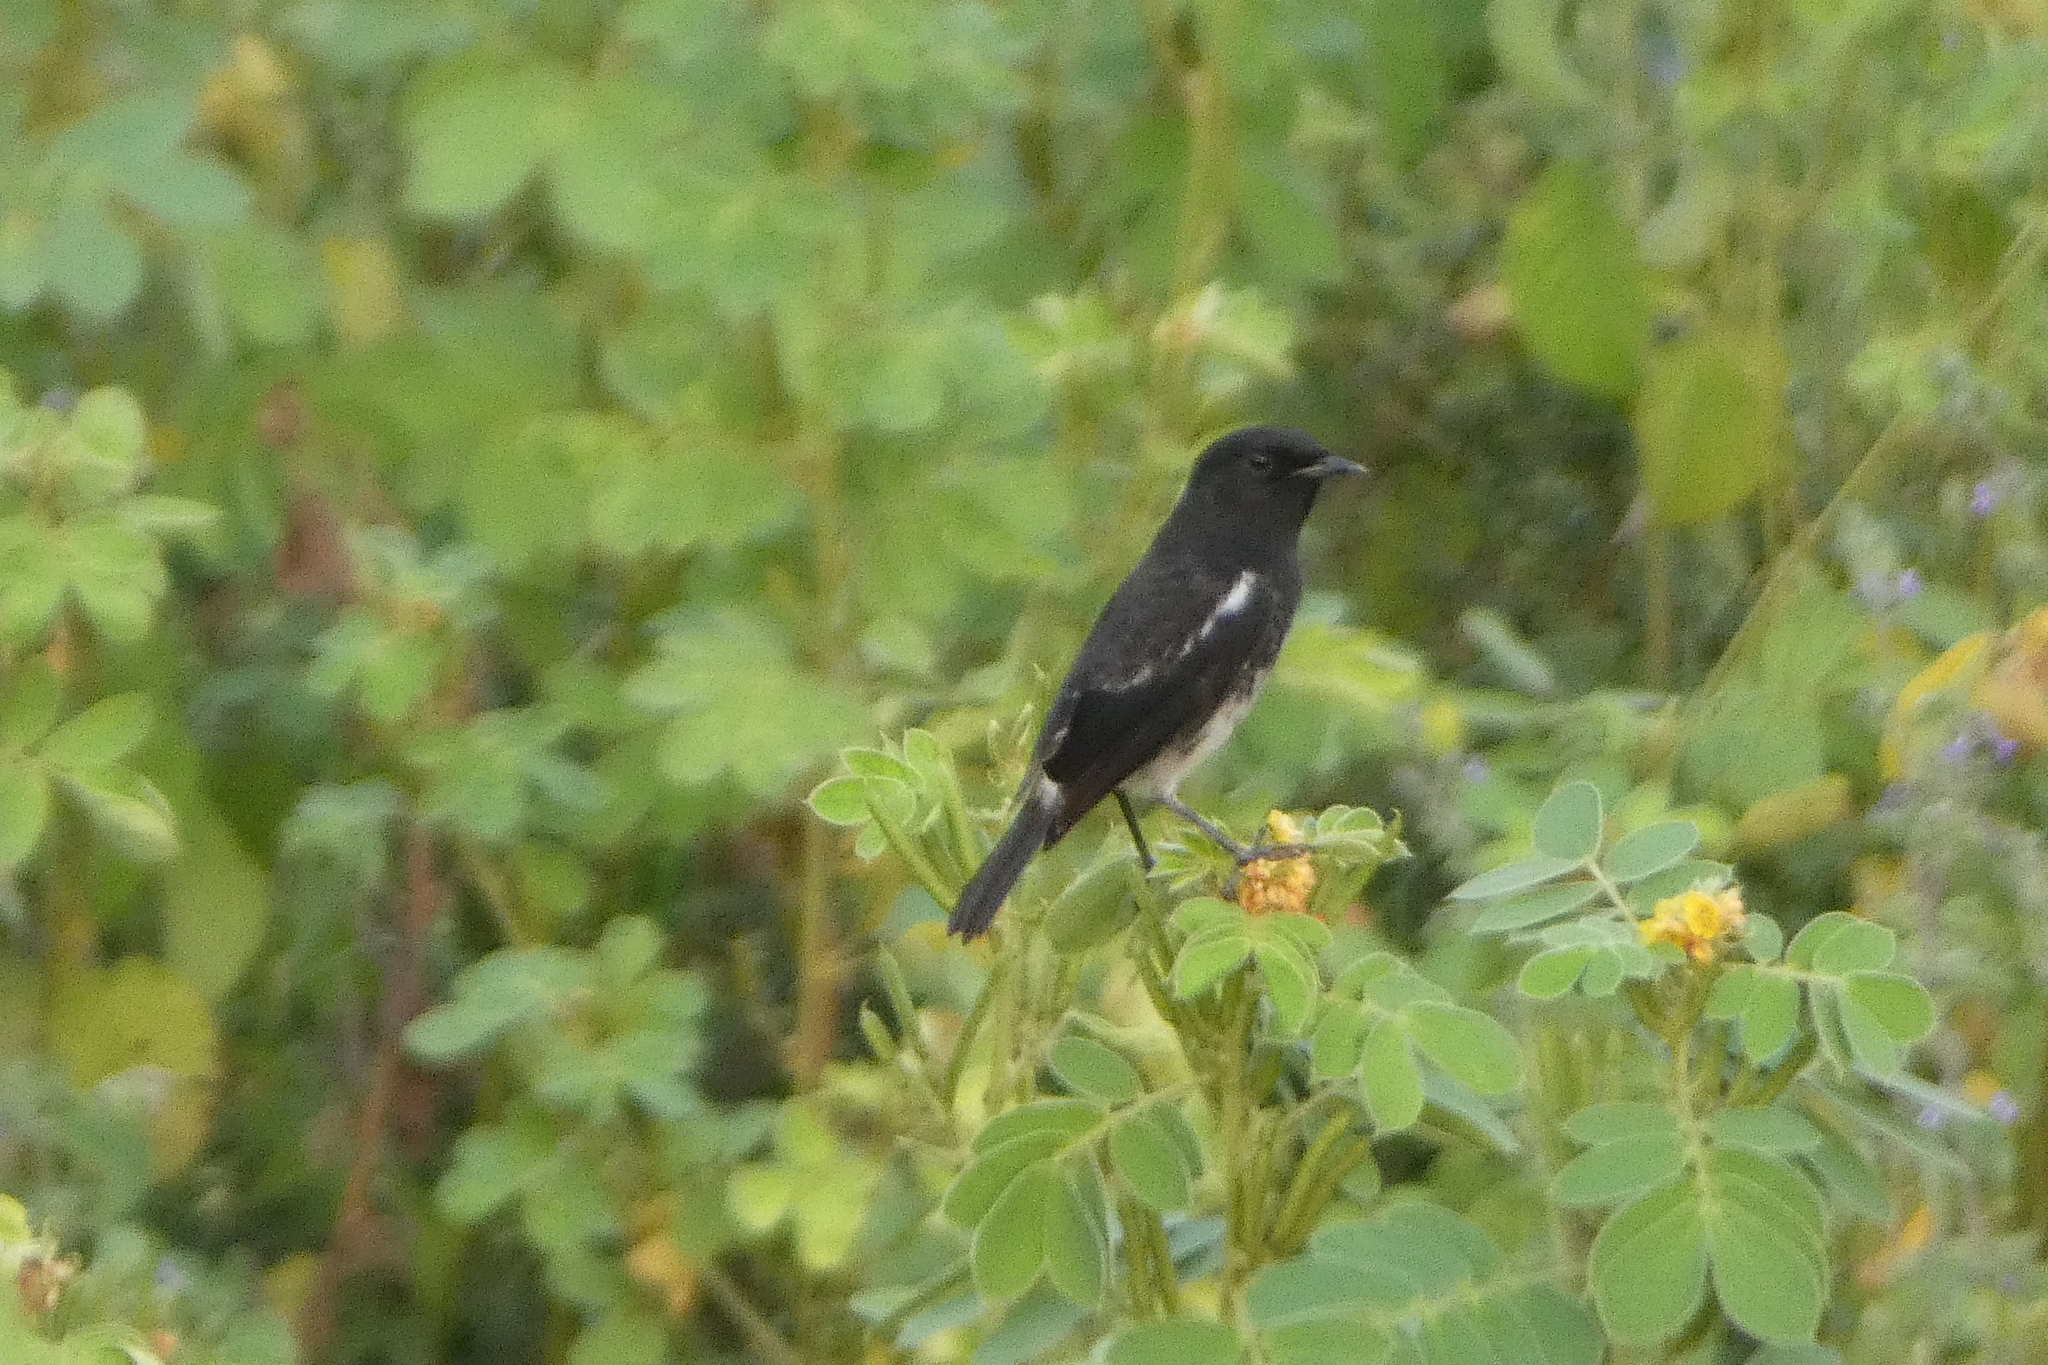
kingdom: Animalia
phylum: Chordata
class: Aves
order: Passeriformes
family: Muscicapidae
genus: Saxicola
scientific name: Saxicola caprata
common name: Pied bush chat
